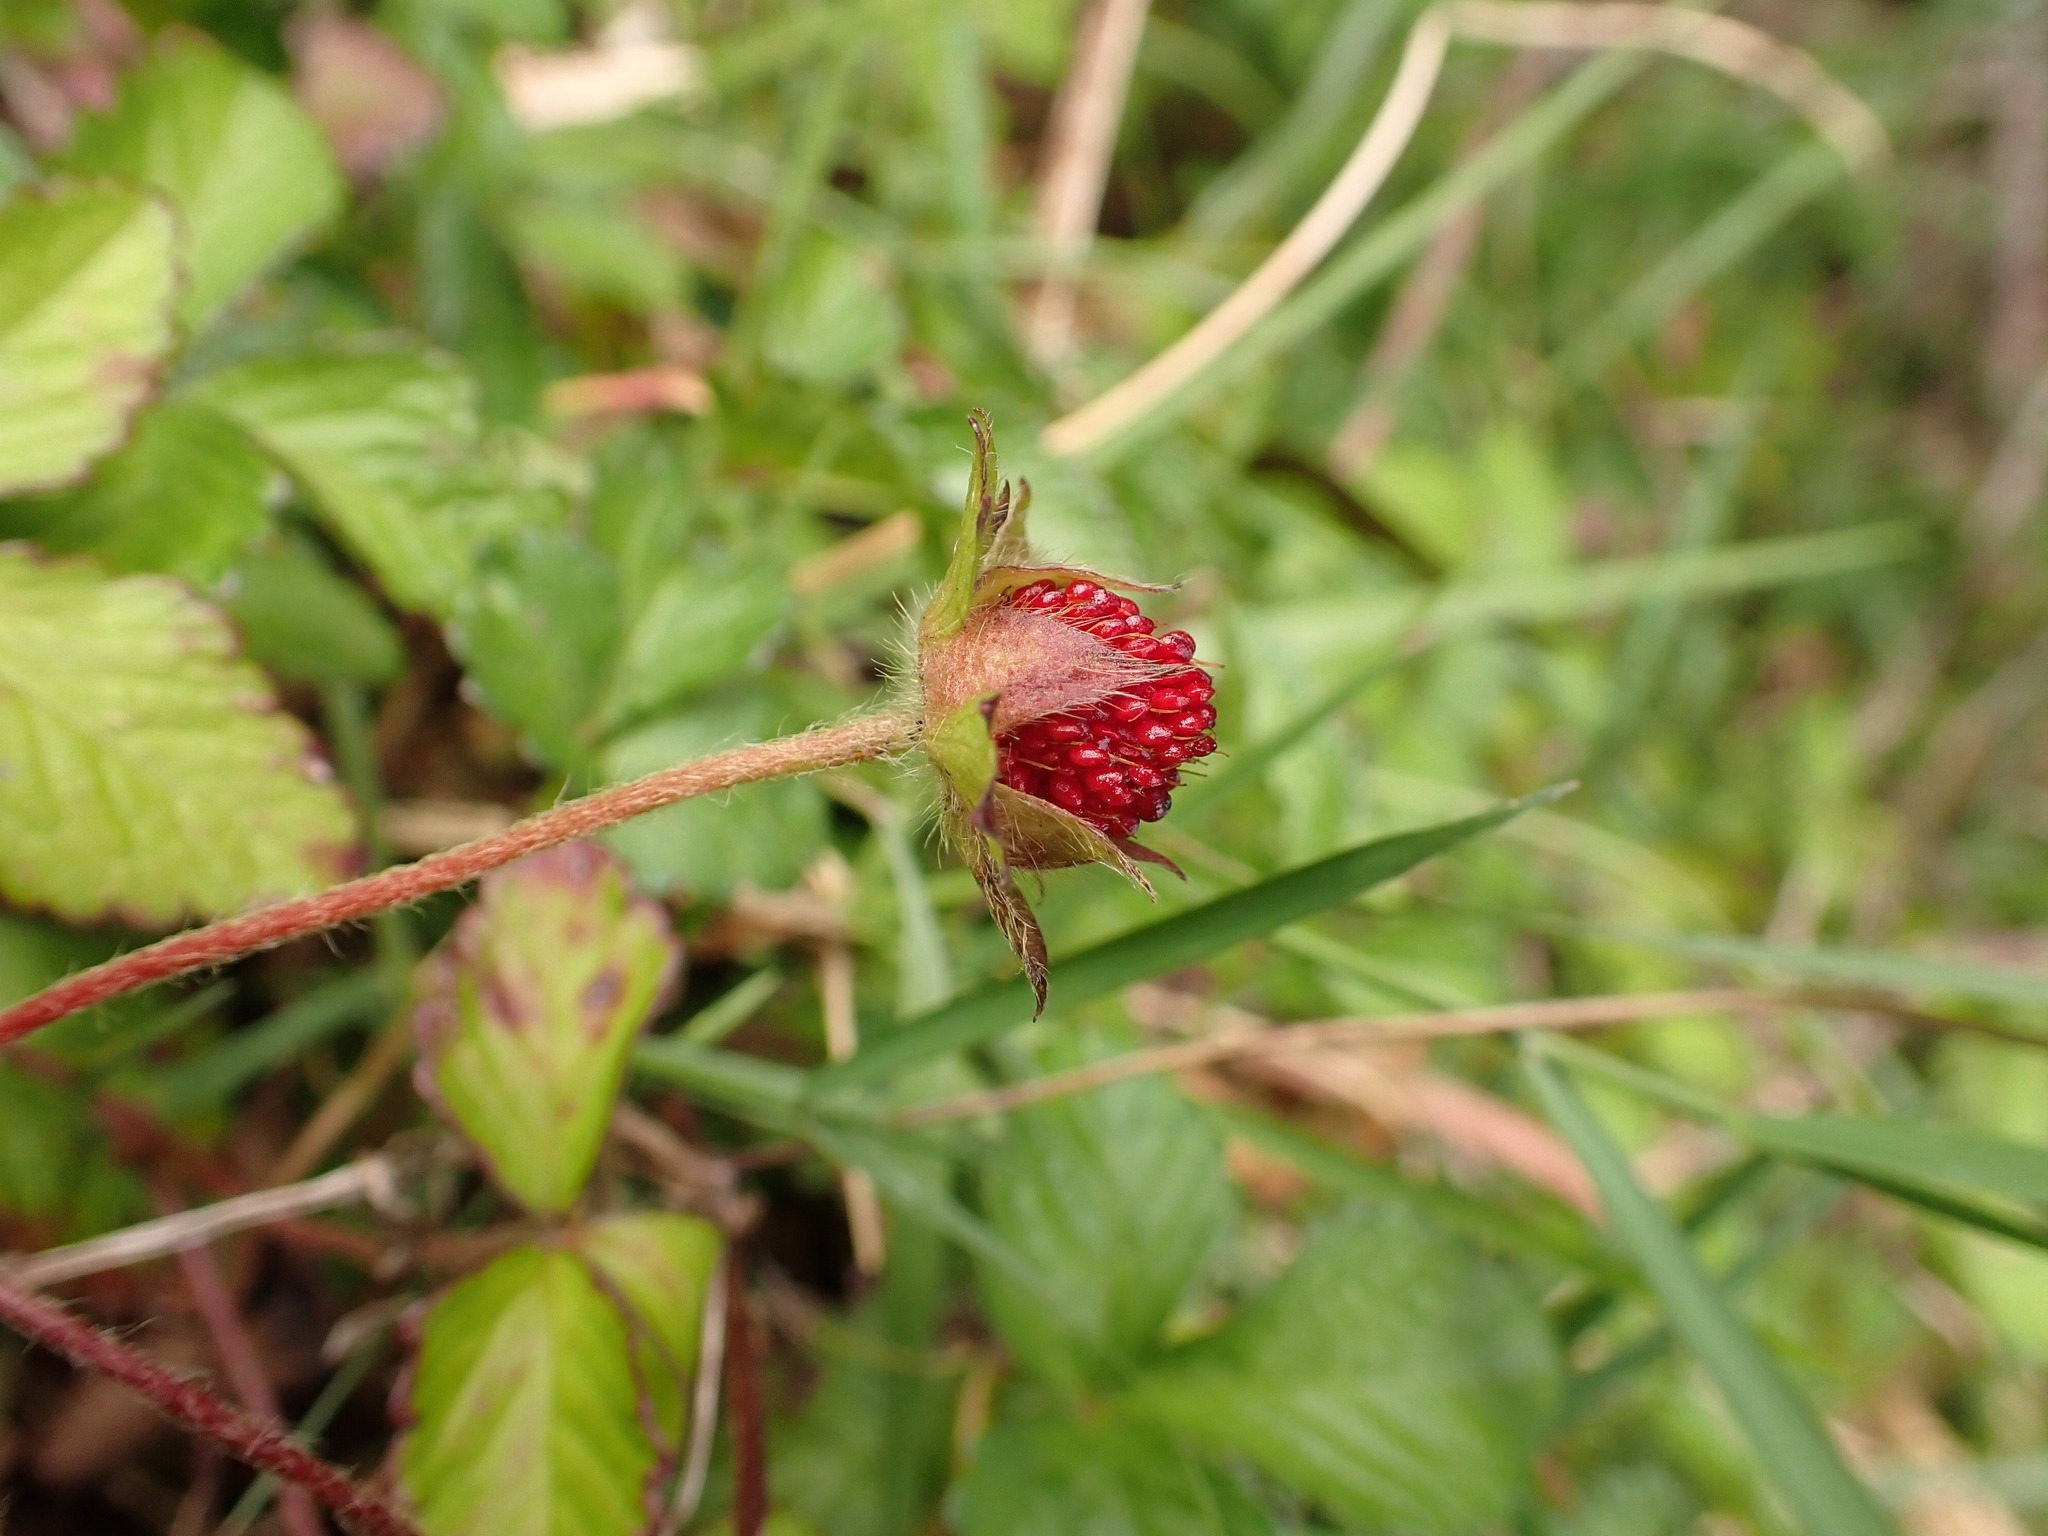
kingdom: Plantae
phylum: Tracheophyta
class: Magnoliopsida
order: Rosales
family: Rosaceae
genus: Potentilla
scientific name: Potentilla indica
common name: Yellow-flowered strawberry
